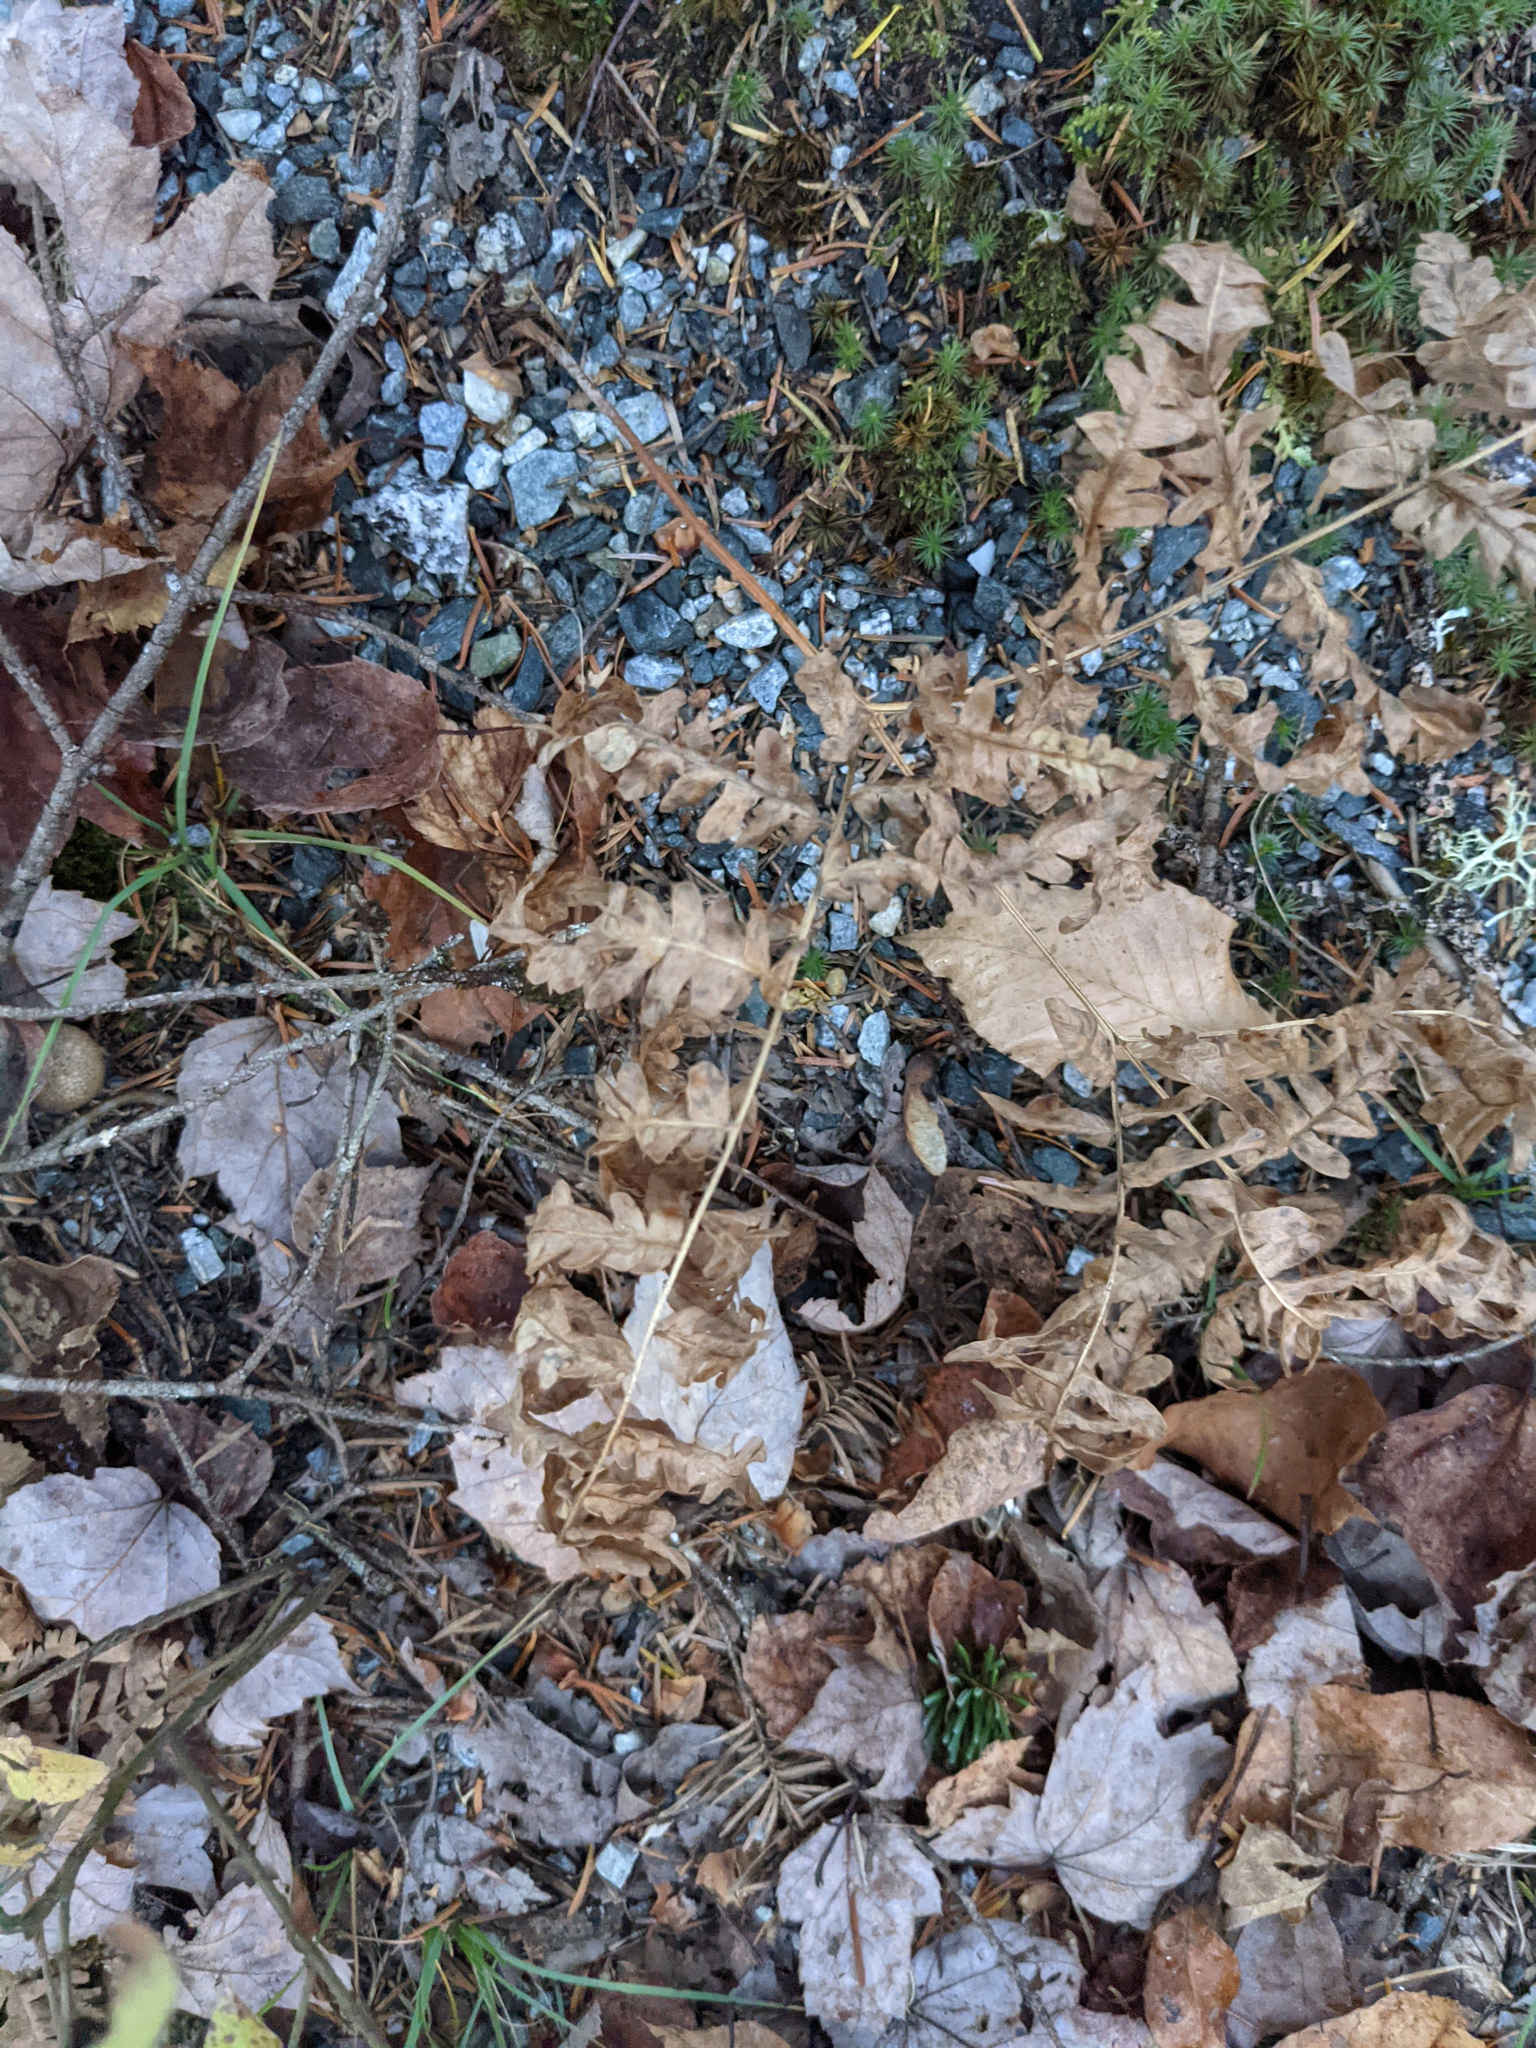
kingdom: Plantae
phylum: Tracheophyta
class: Polypodiopsida
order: Polypodiales
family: Dennstaedtiaceae
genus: Pteridium
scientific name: Pteridium aquilinum
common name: Bracken
